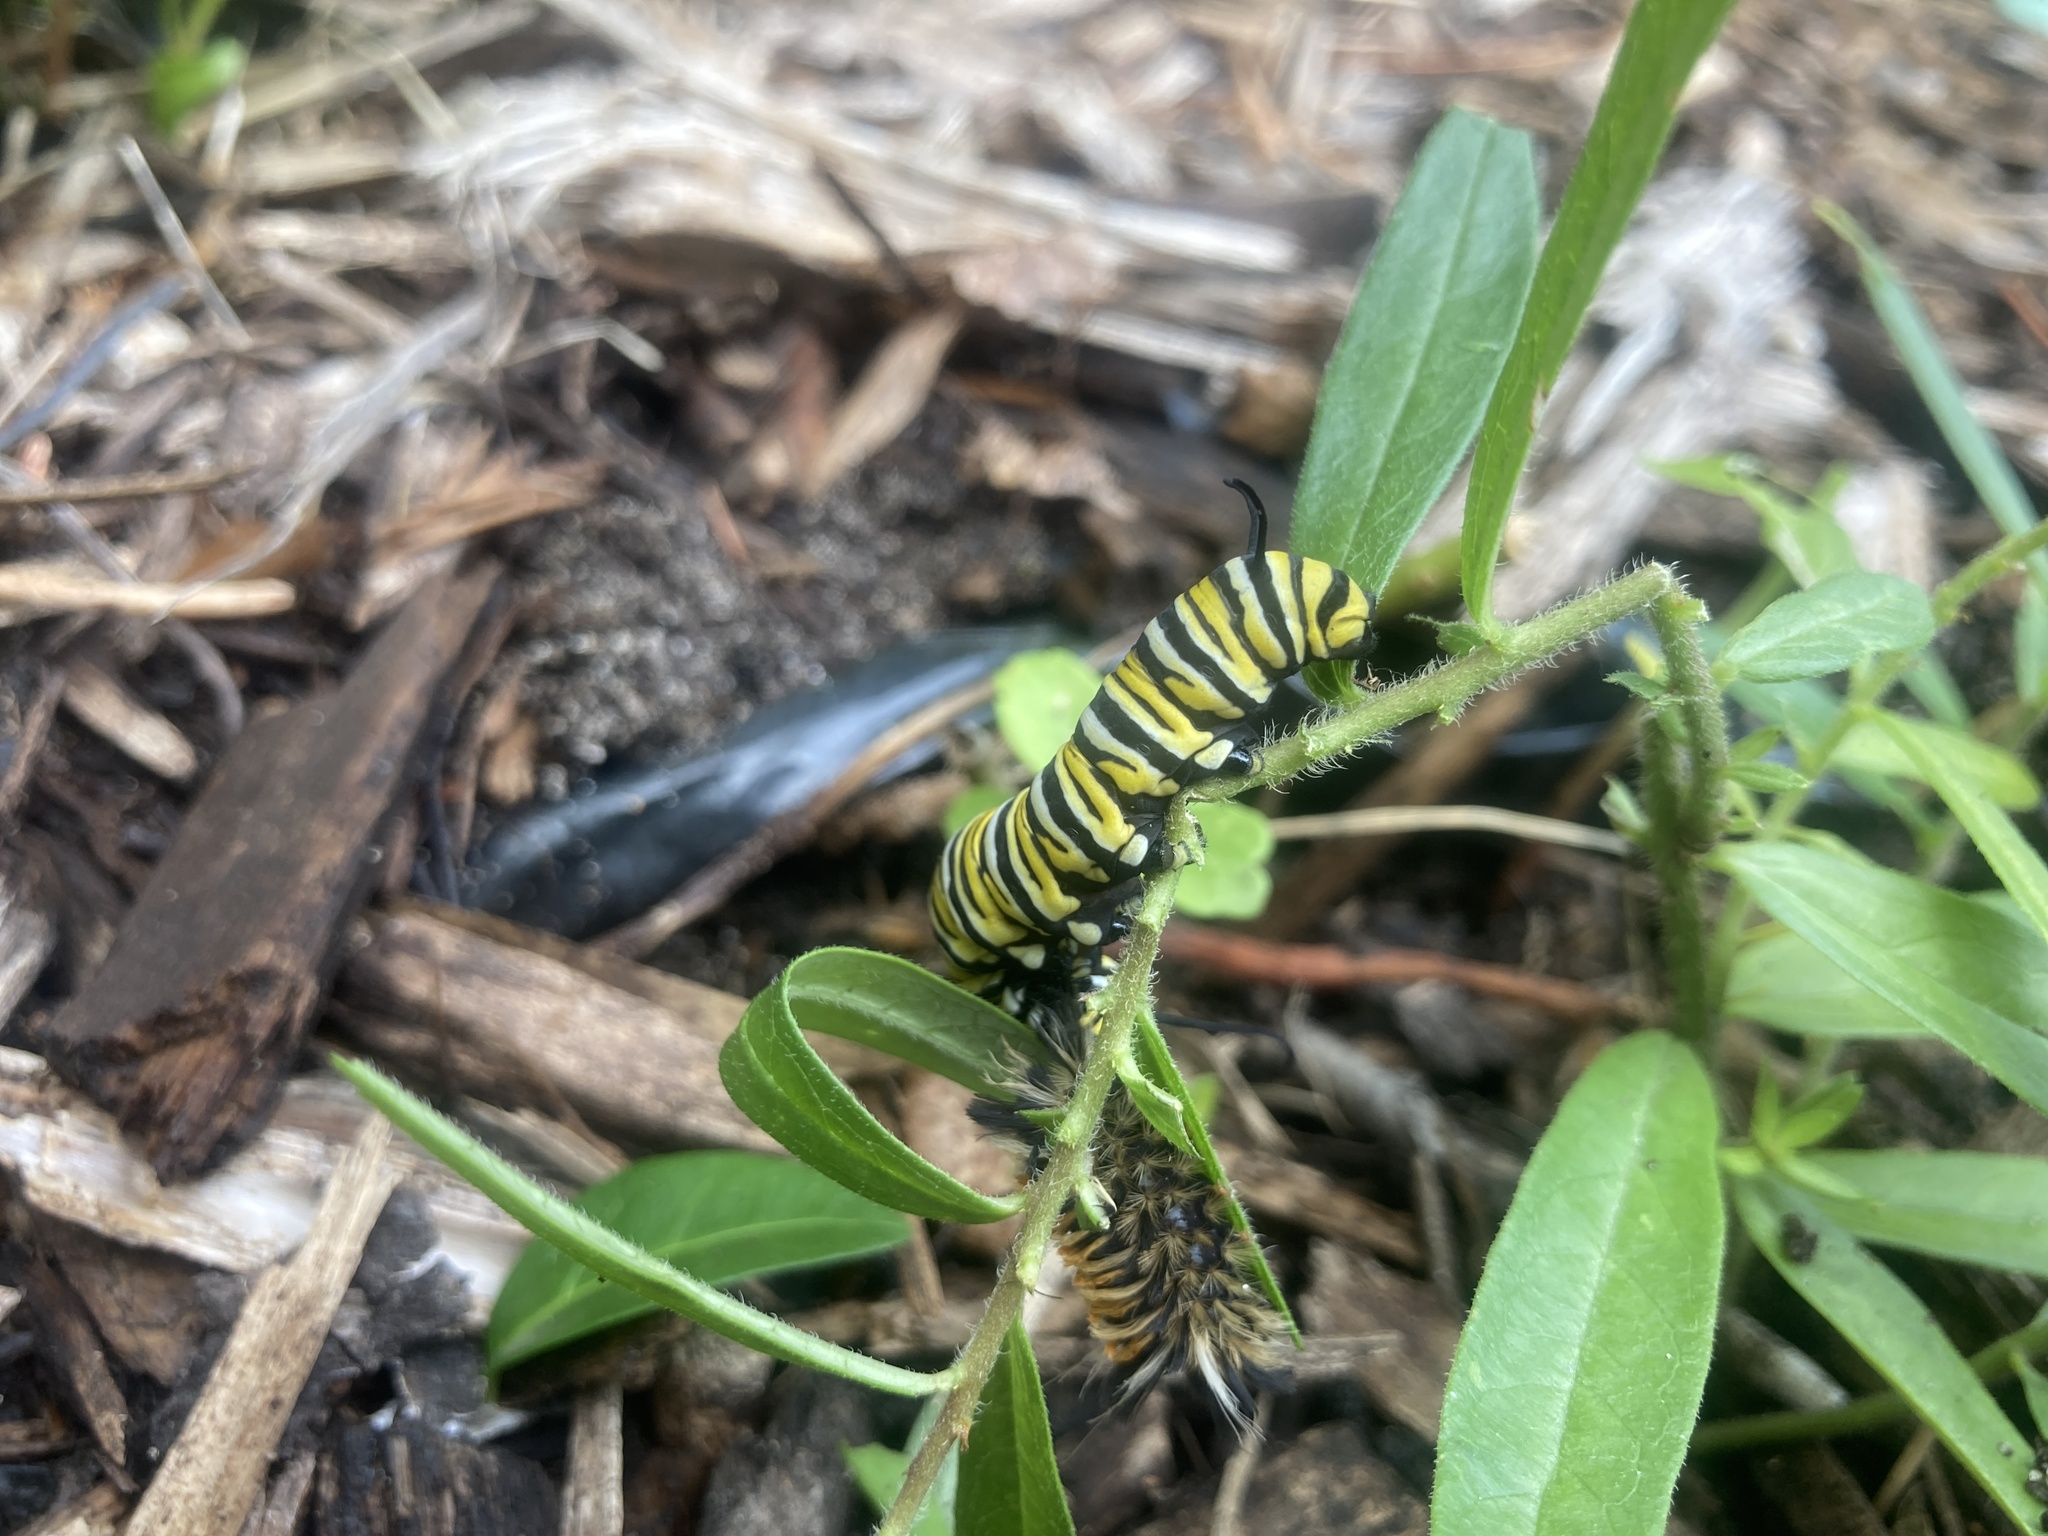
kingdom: Animalia
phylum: Arthropoda
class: Insecta
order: Lepidoptera
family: Nymphalidae
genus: Danaus
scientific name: Danaus plexippus
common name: Monarch
